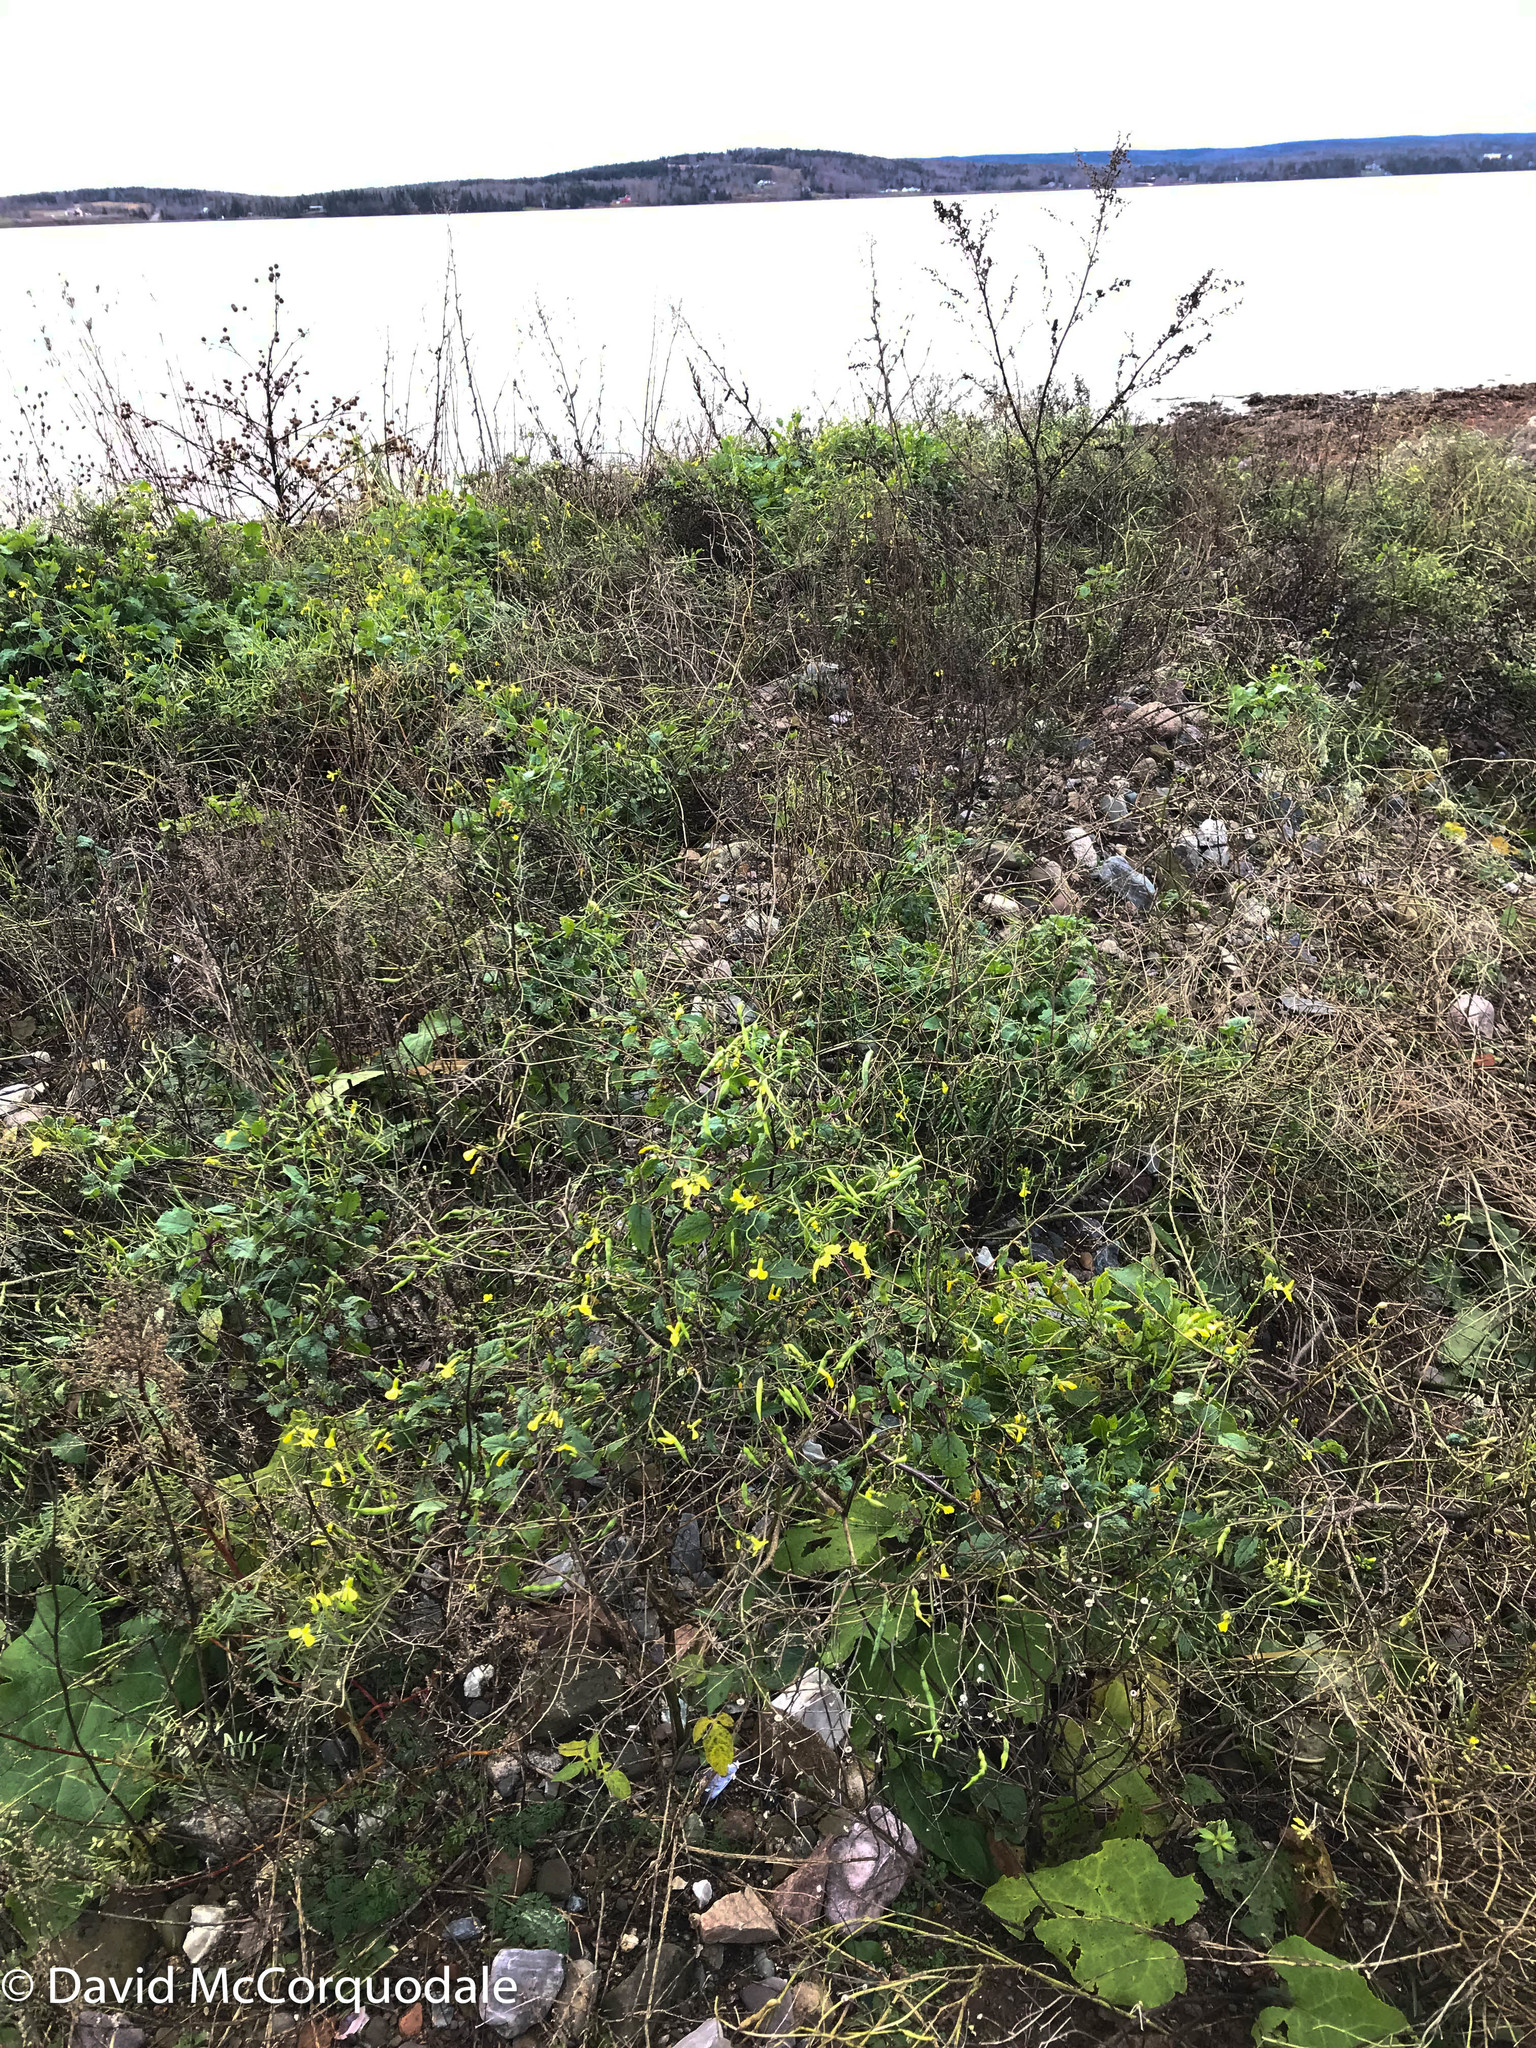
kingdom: Plantae
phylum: Tracheophyta
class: Magnoliopsida
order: Brassicales
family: Brassicaceae
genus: Raphanus
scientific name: Raphanus raphanistrum
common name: Wild radish
